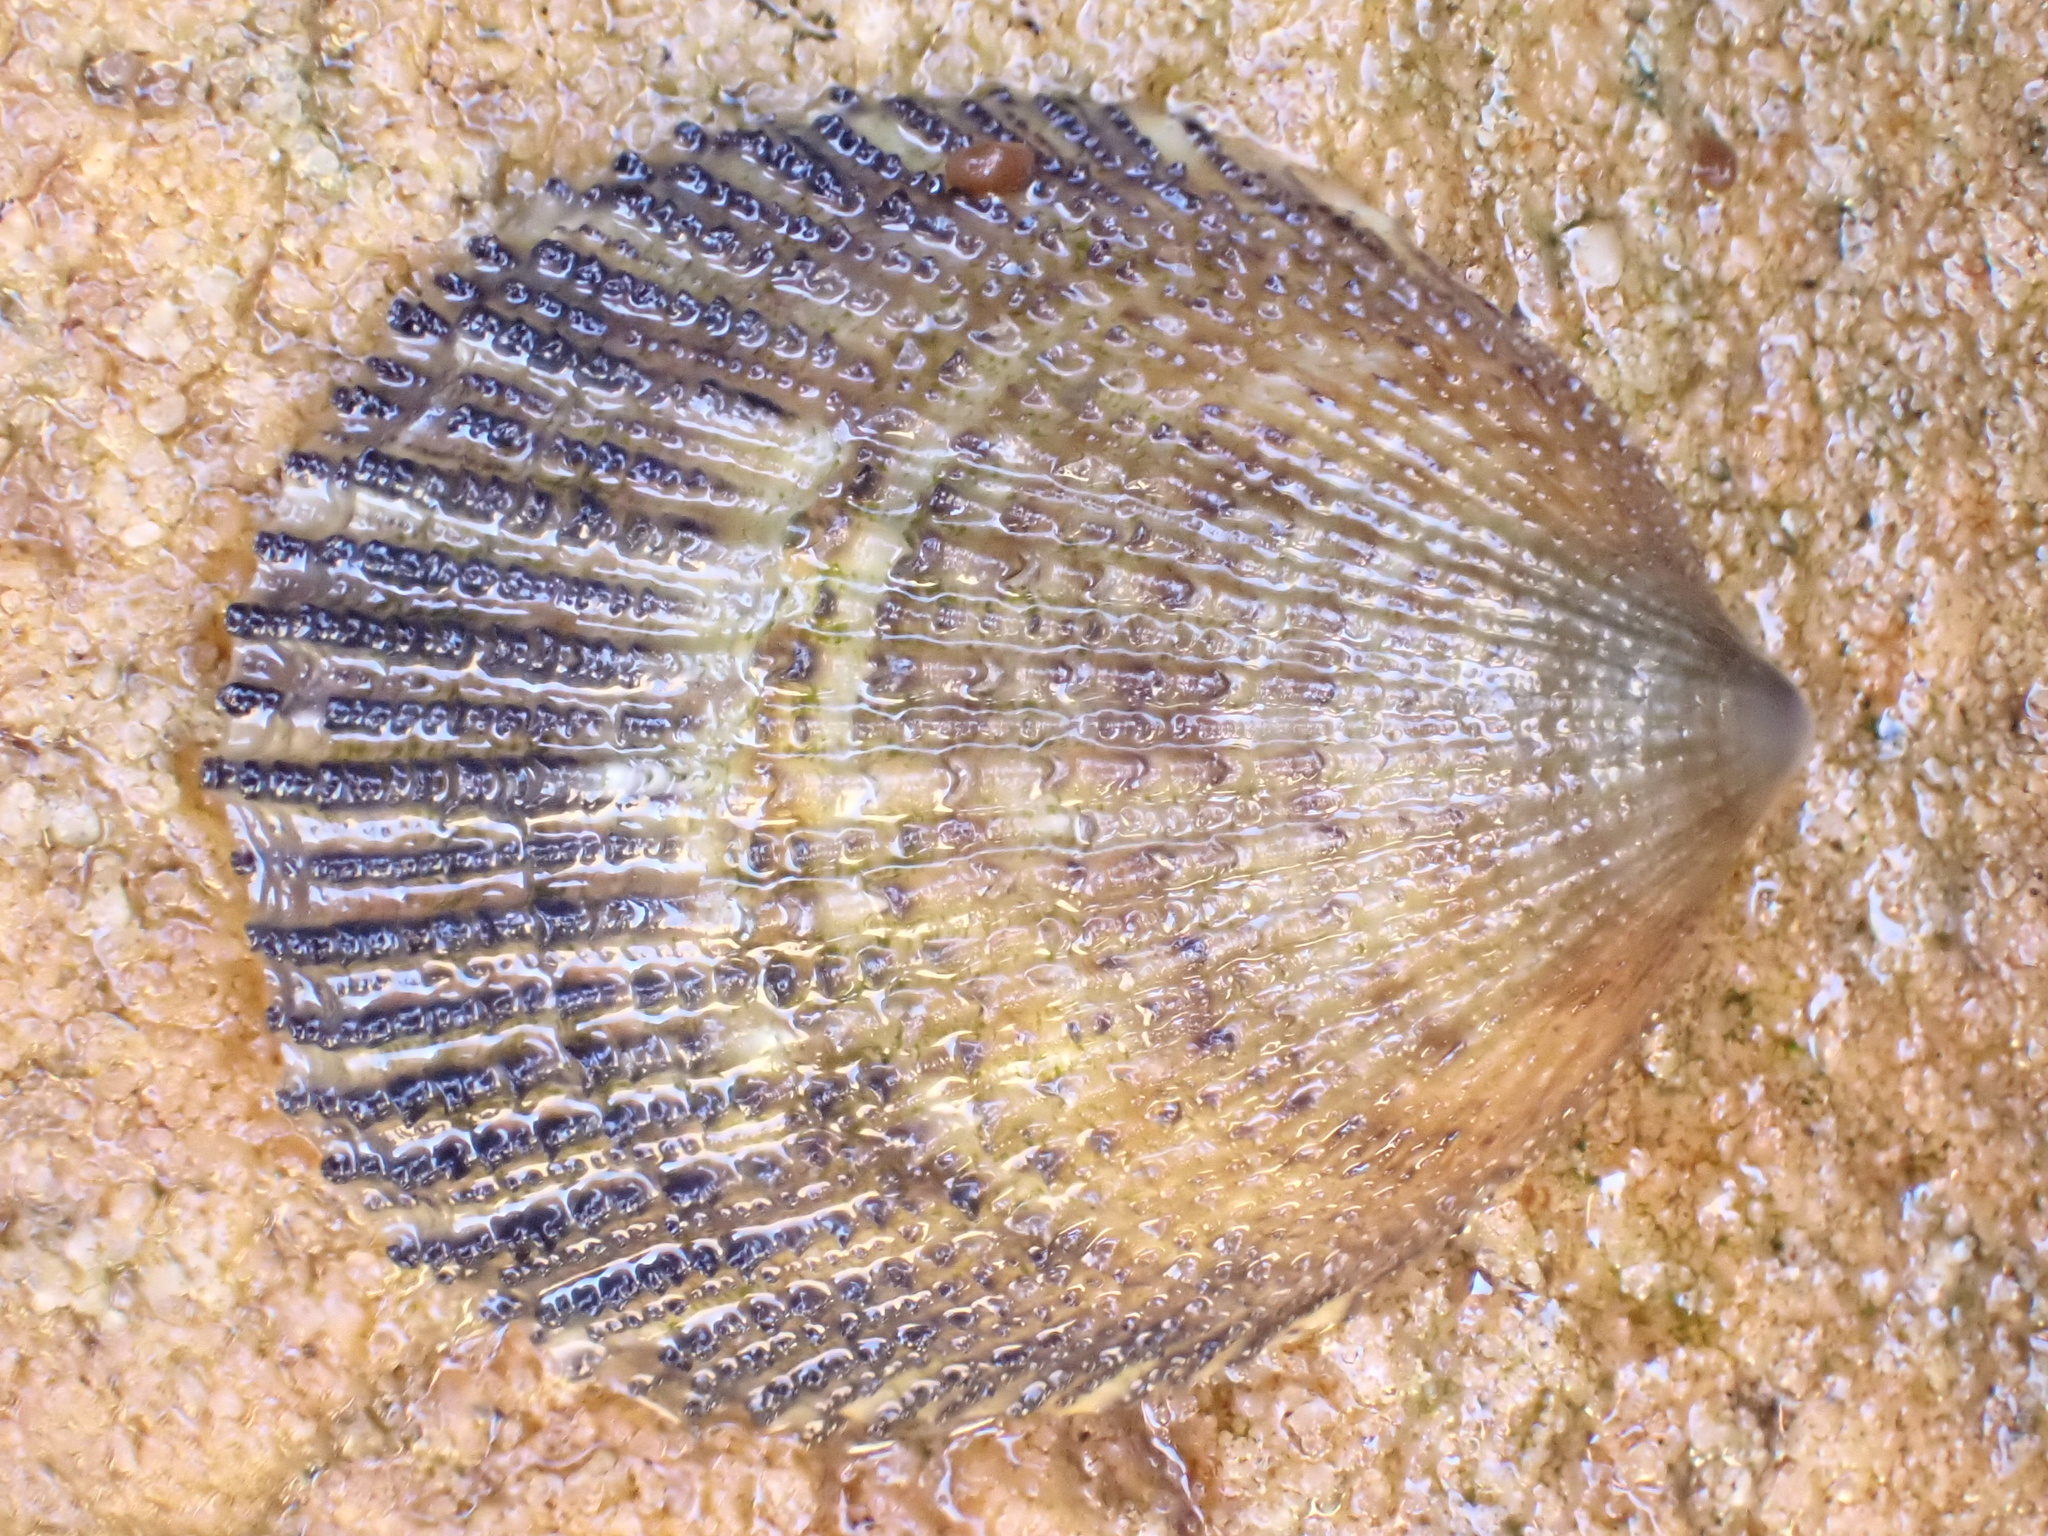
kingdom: Animalia
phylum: Mollusca
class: Gastropoda
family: Patellidae
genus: Helcion
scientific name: Helcion pectunculus
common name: Prickly limpet
